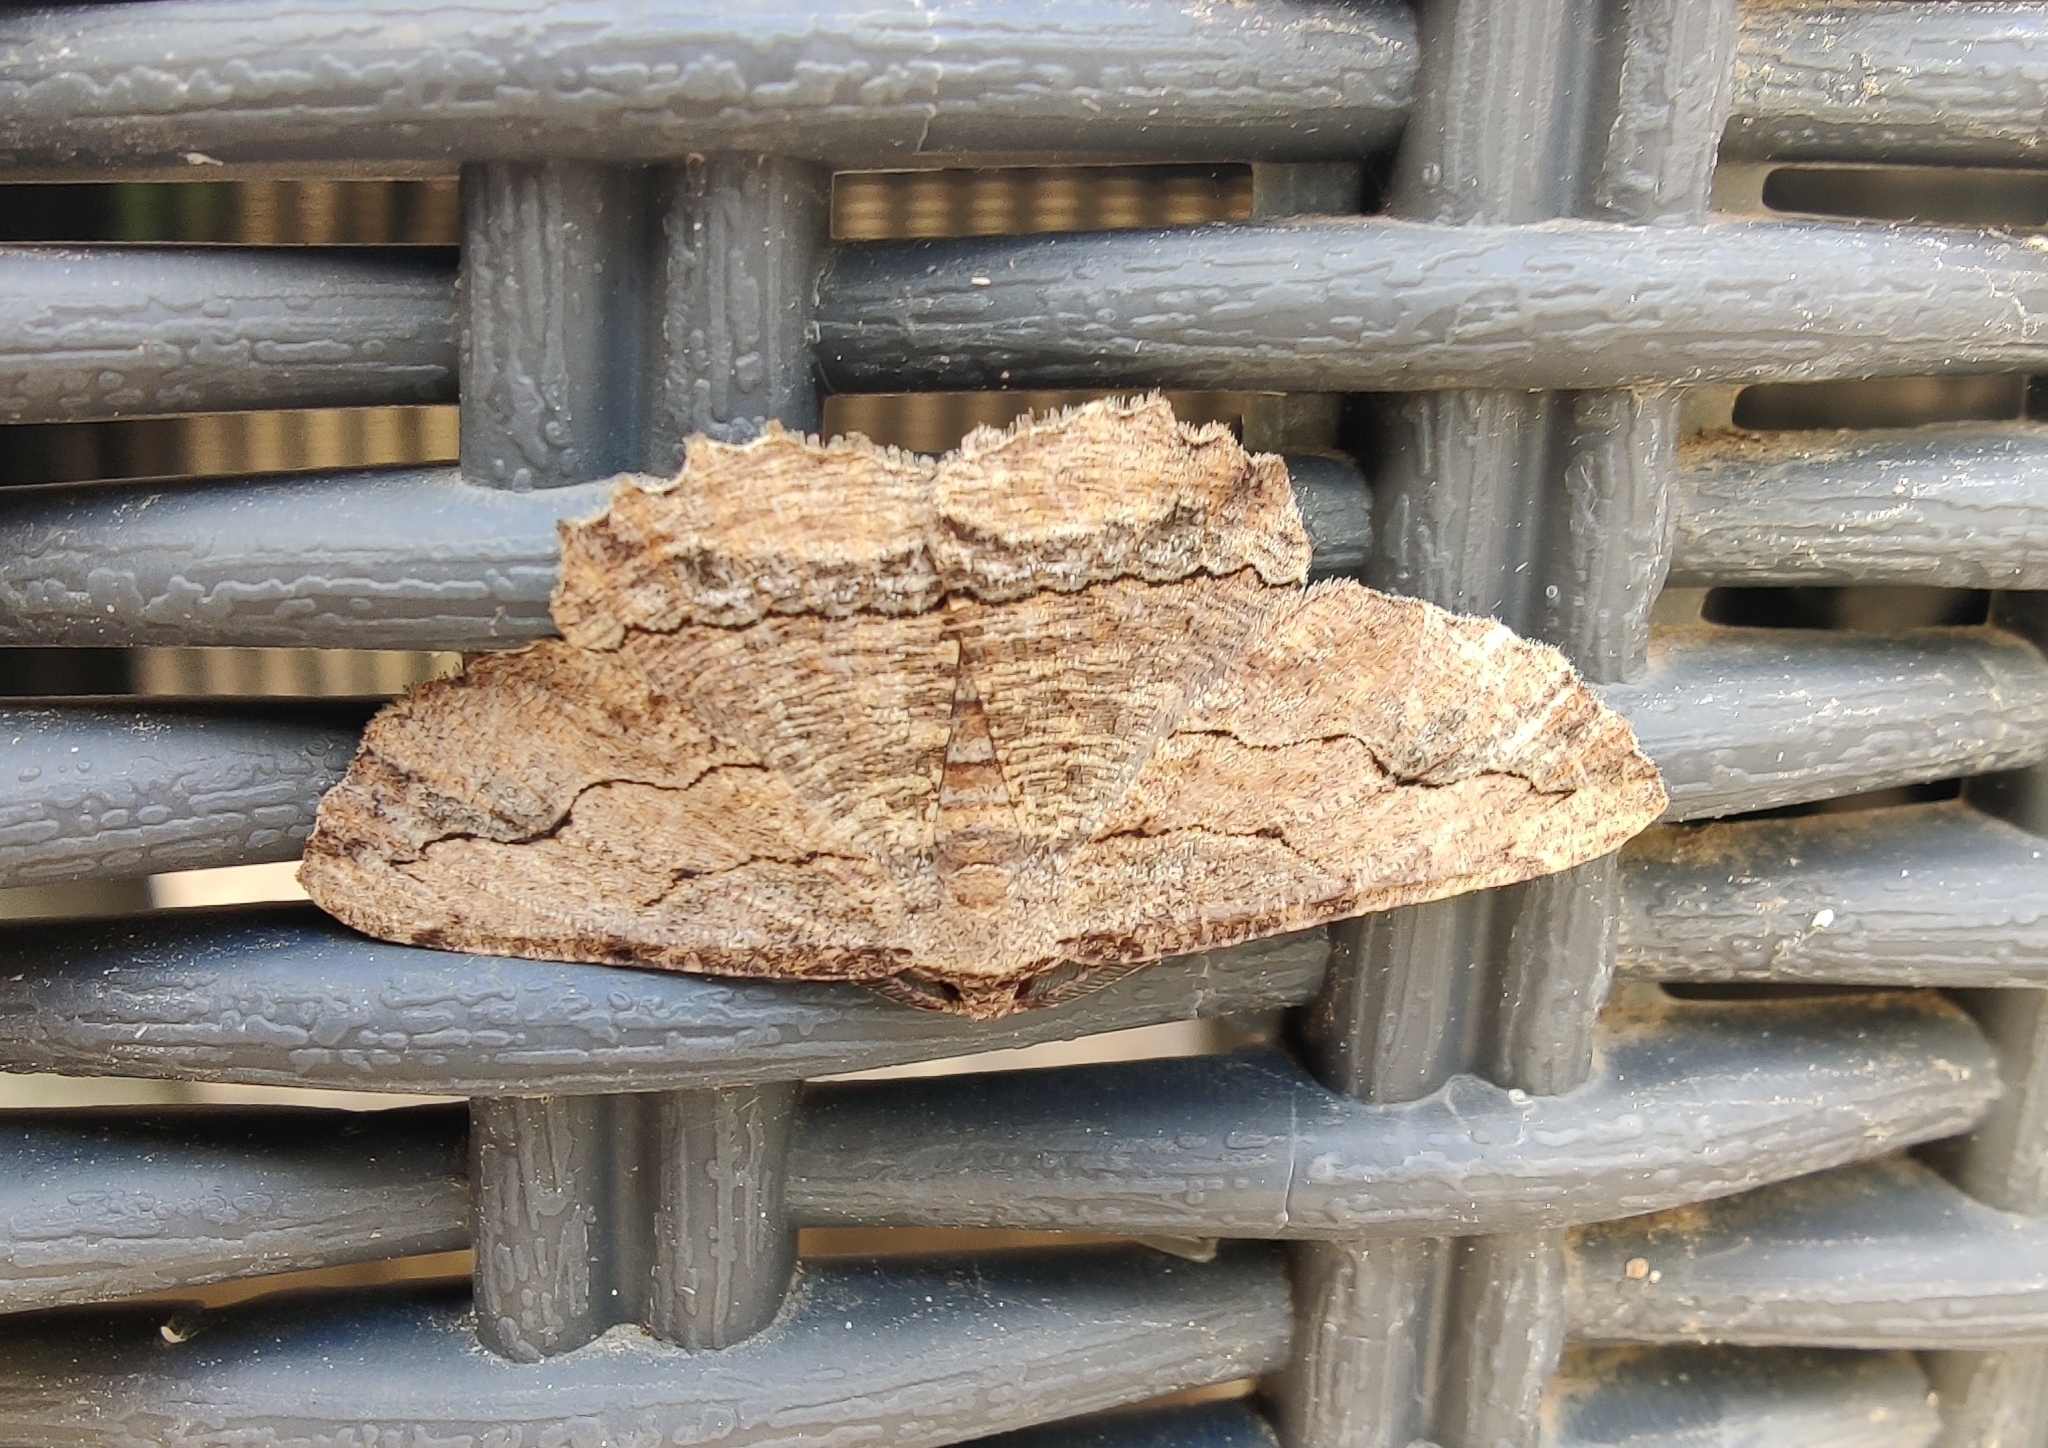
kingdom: Animalia
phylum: Arthropoda
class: Insecta
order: Lepidoptera
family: Geometridae
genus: Menophra
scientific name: Menophra abruptaria
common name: Waved umber
